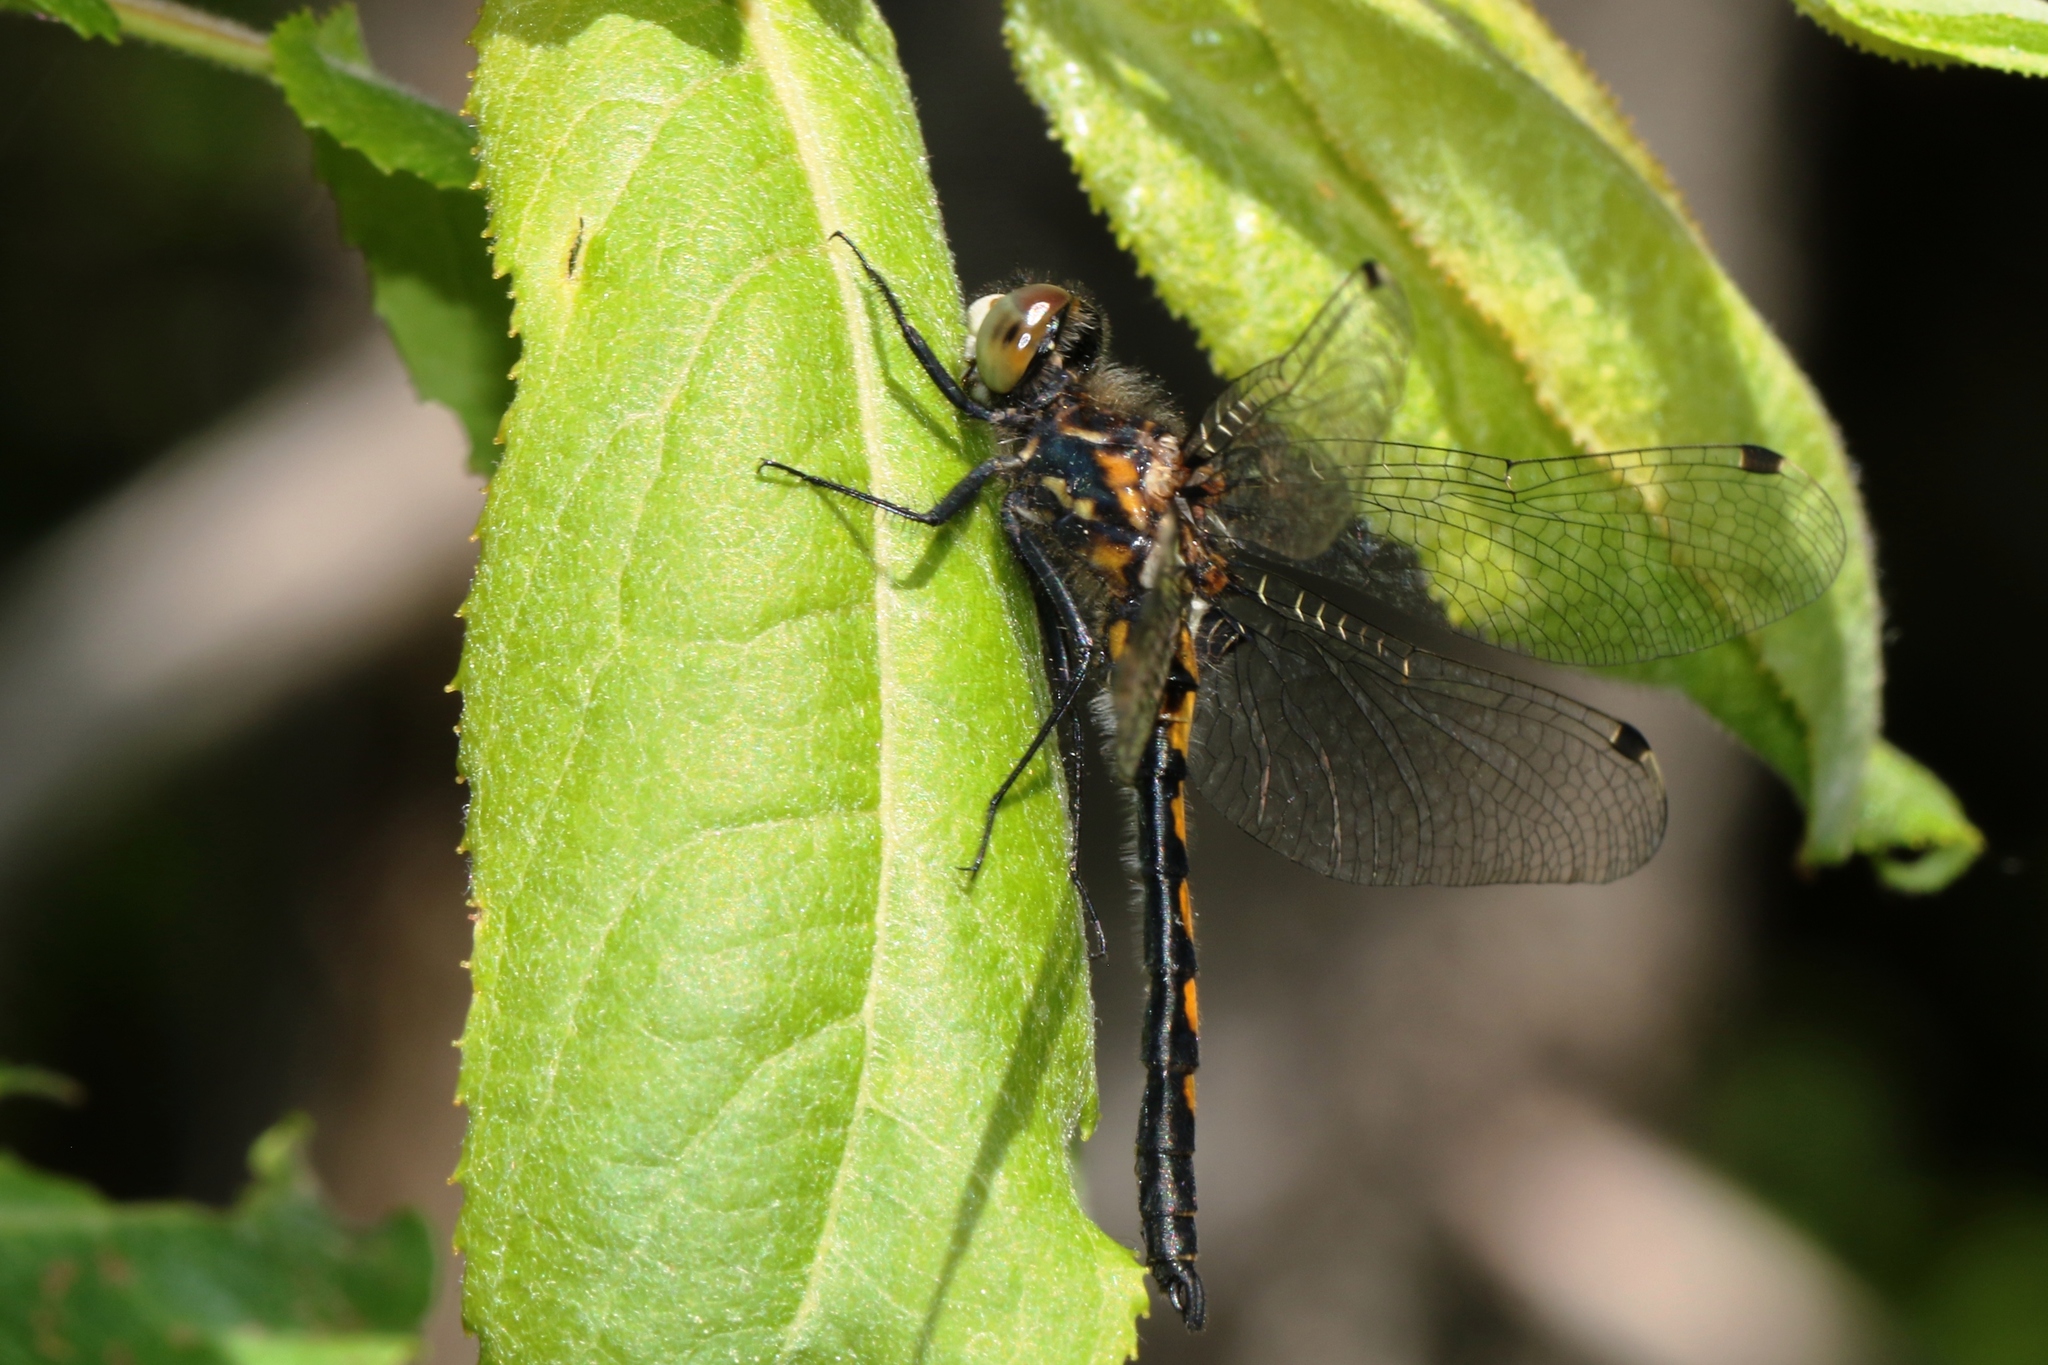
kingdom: Animalia
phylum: Arthropoda
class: Insecta
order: Odonata
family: Libellulidae
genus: Leucorrhinia
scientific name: Leucorrhinia hudsonica
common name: Hudsonian whiteface
